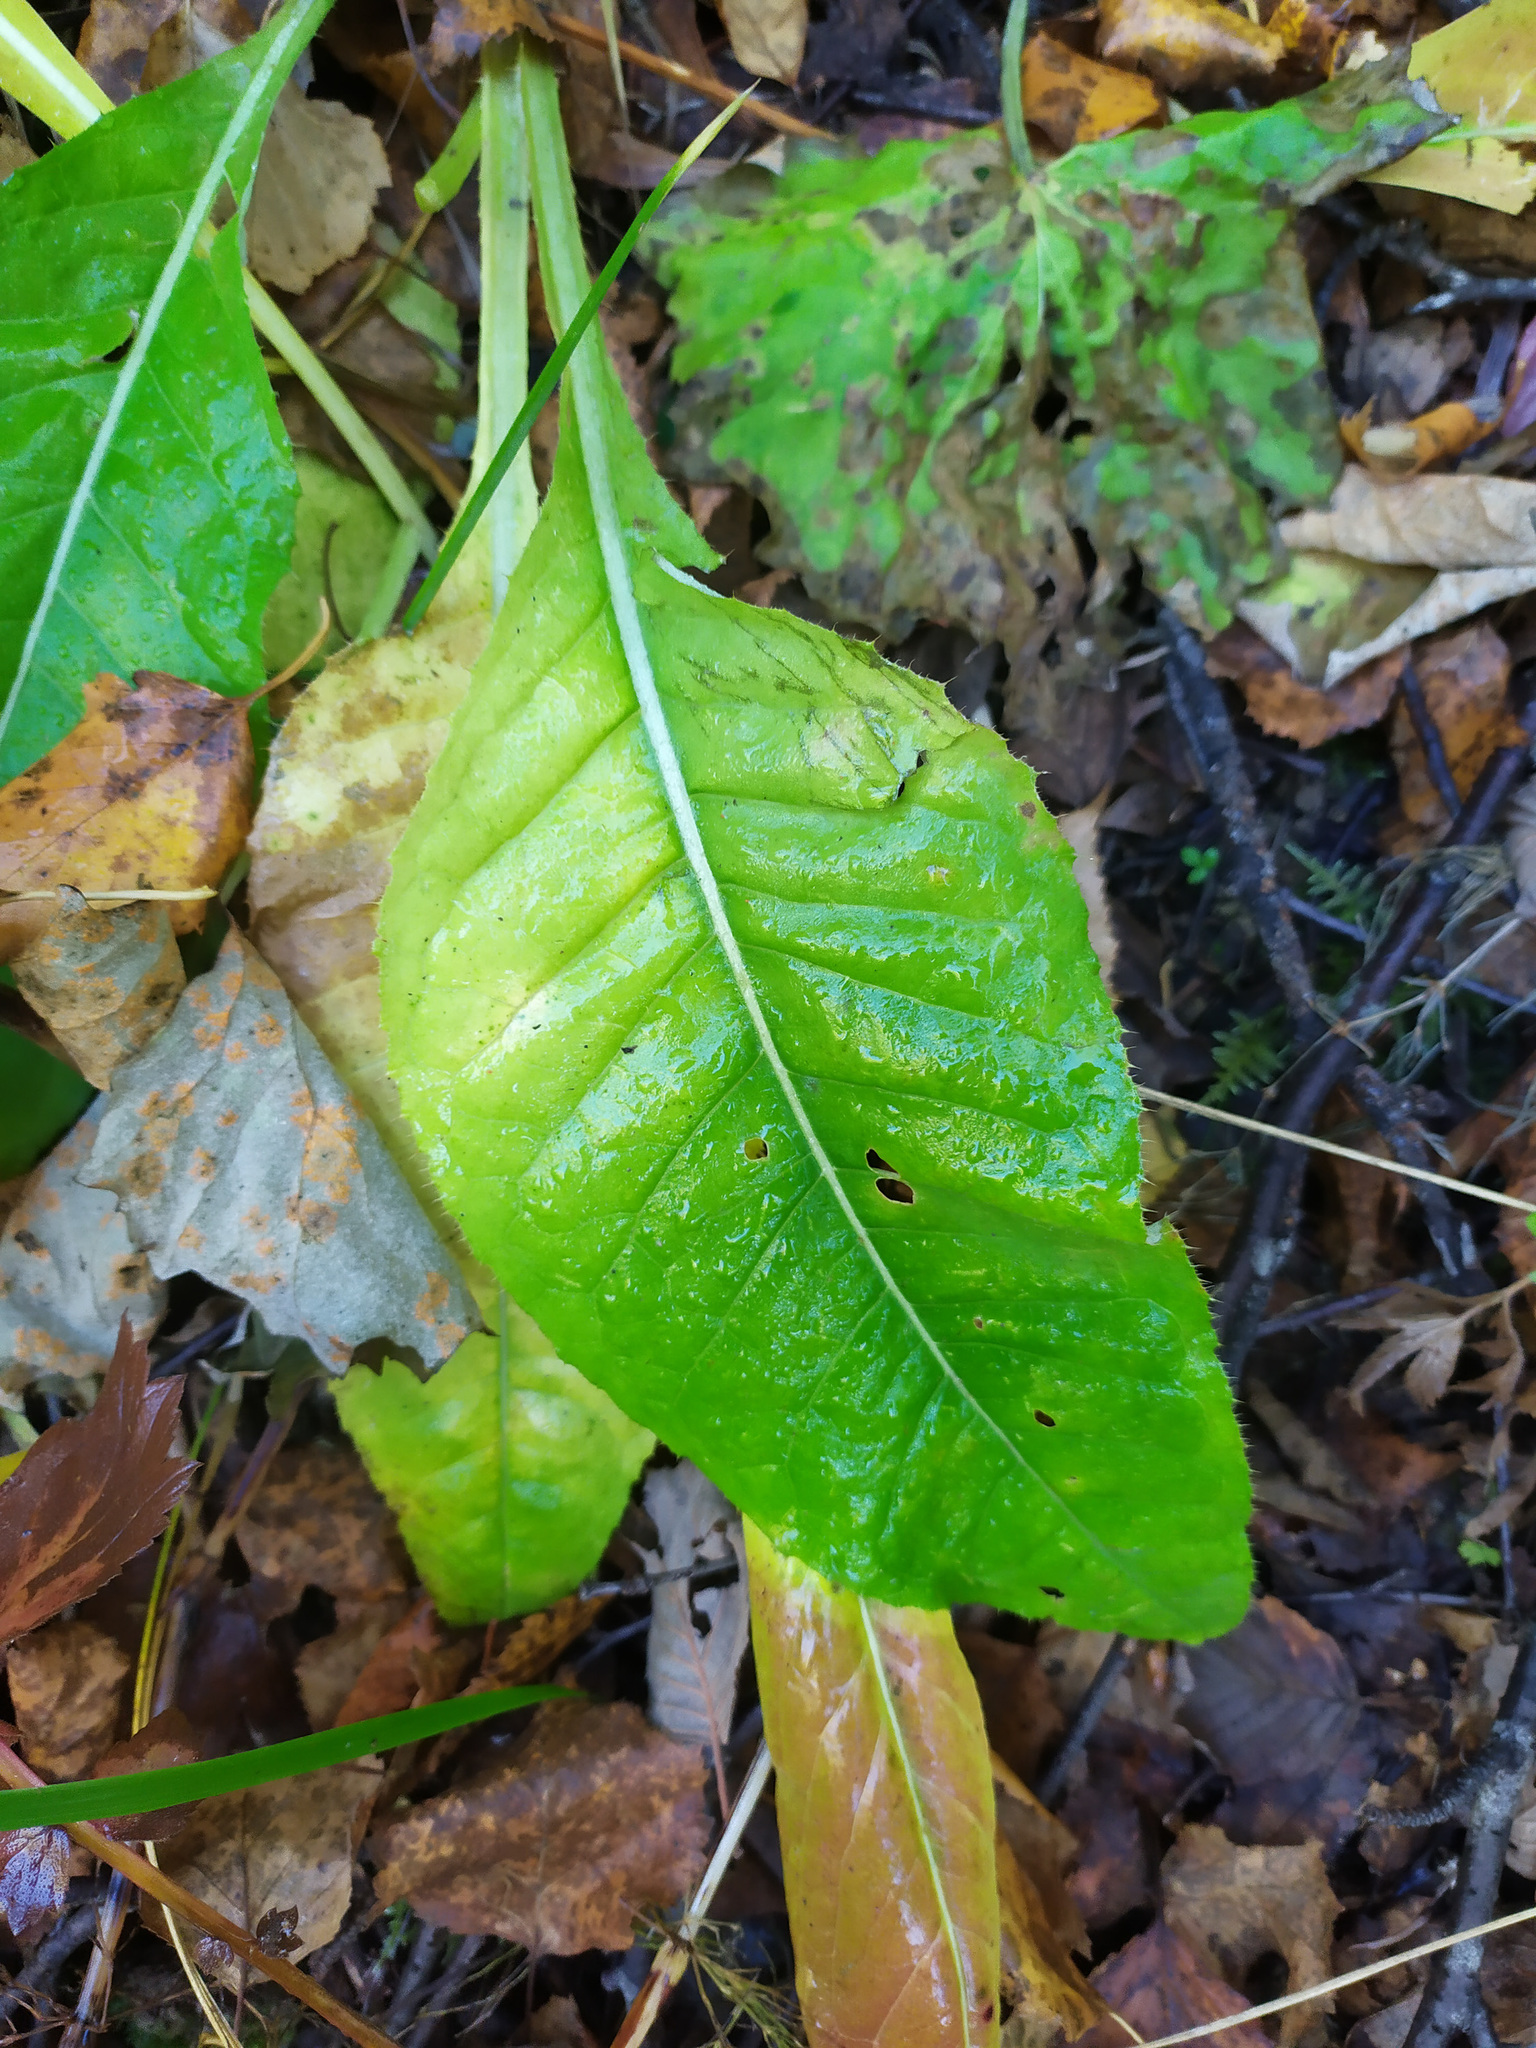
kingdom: Plantae
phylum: Tracheophyta
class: Magnoliopsida
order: Asterales
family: Asteraceae
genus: Cirsium
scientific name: Cirsium heterophyllum
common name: Melancholy thistle
